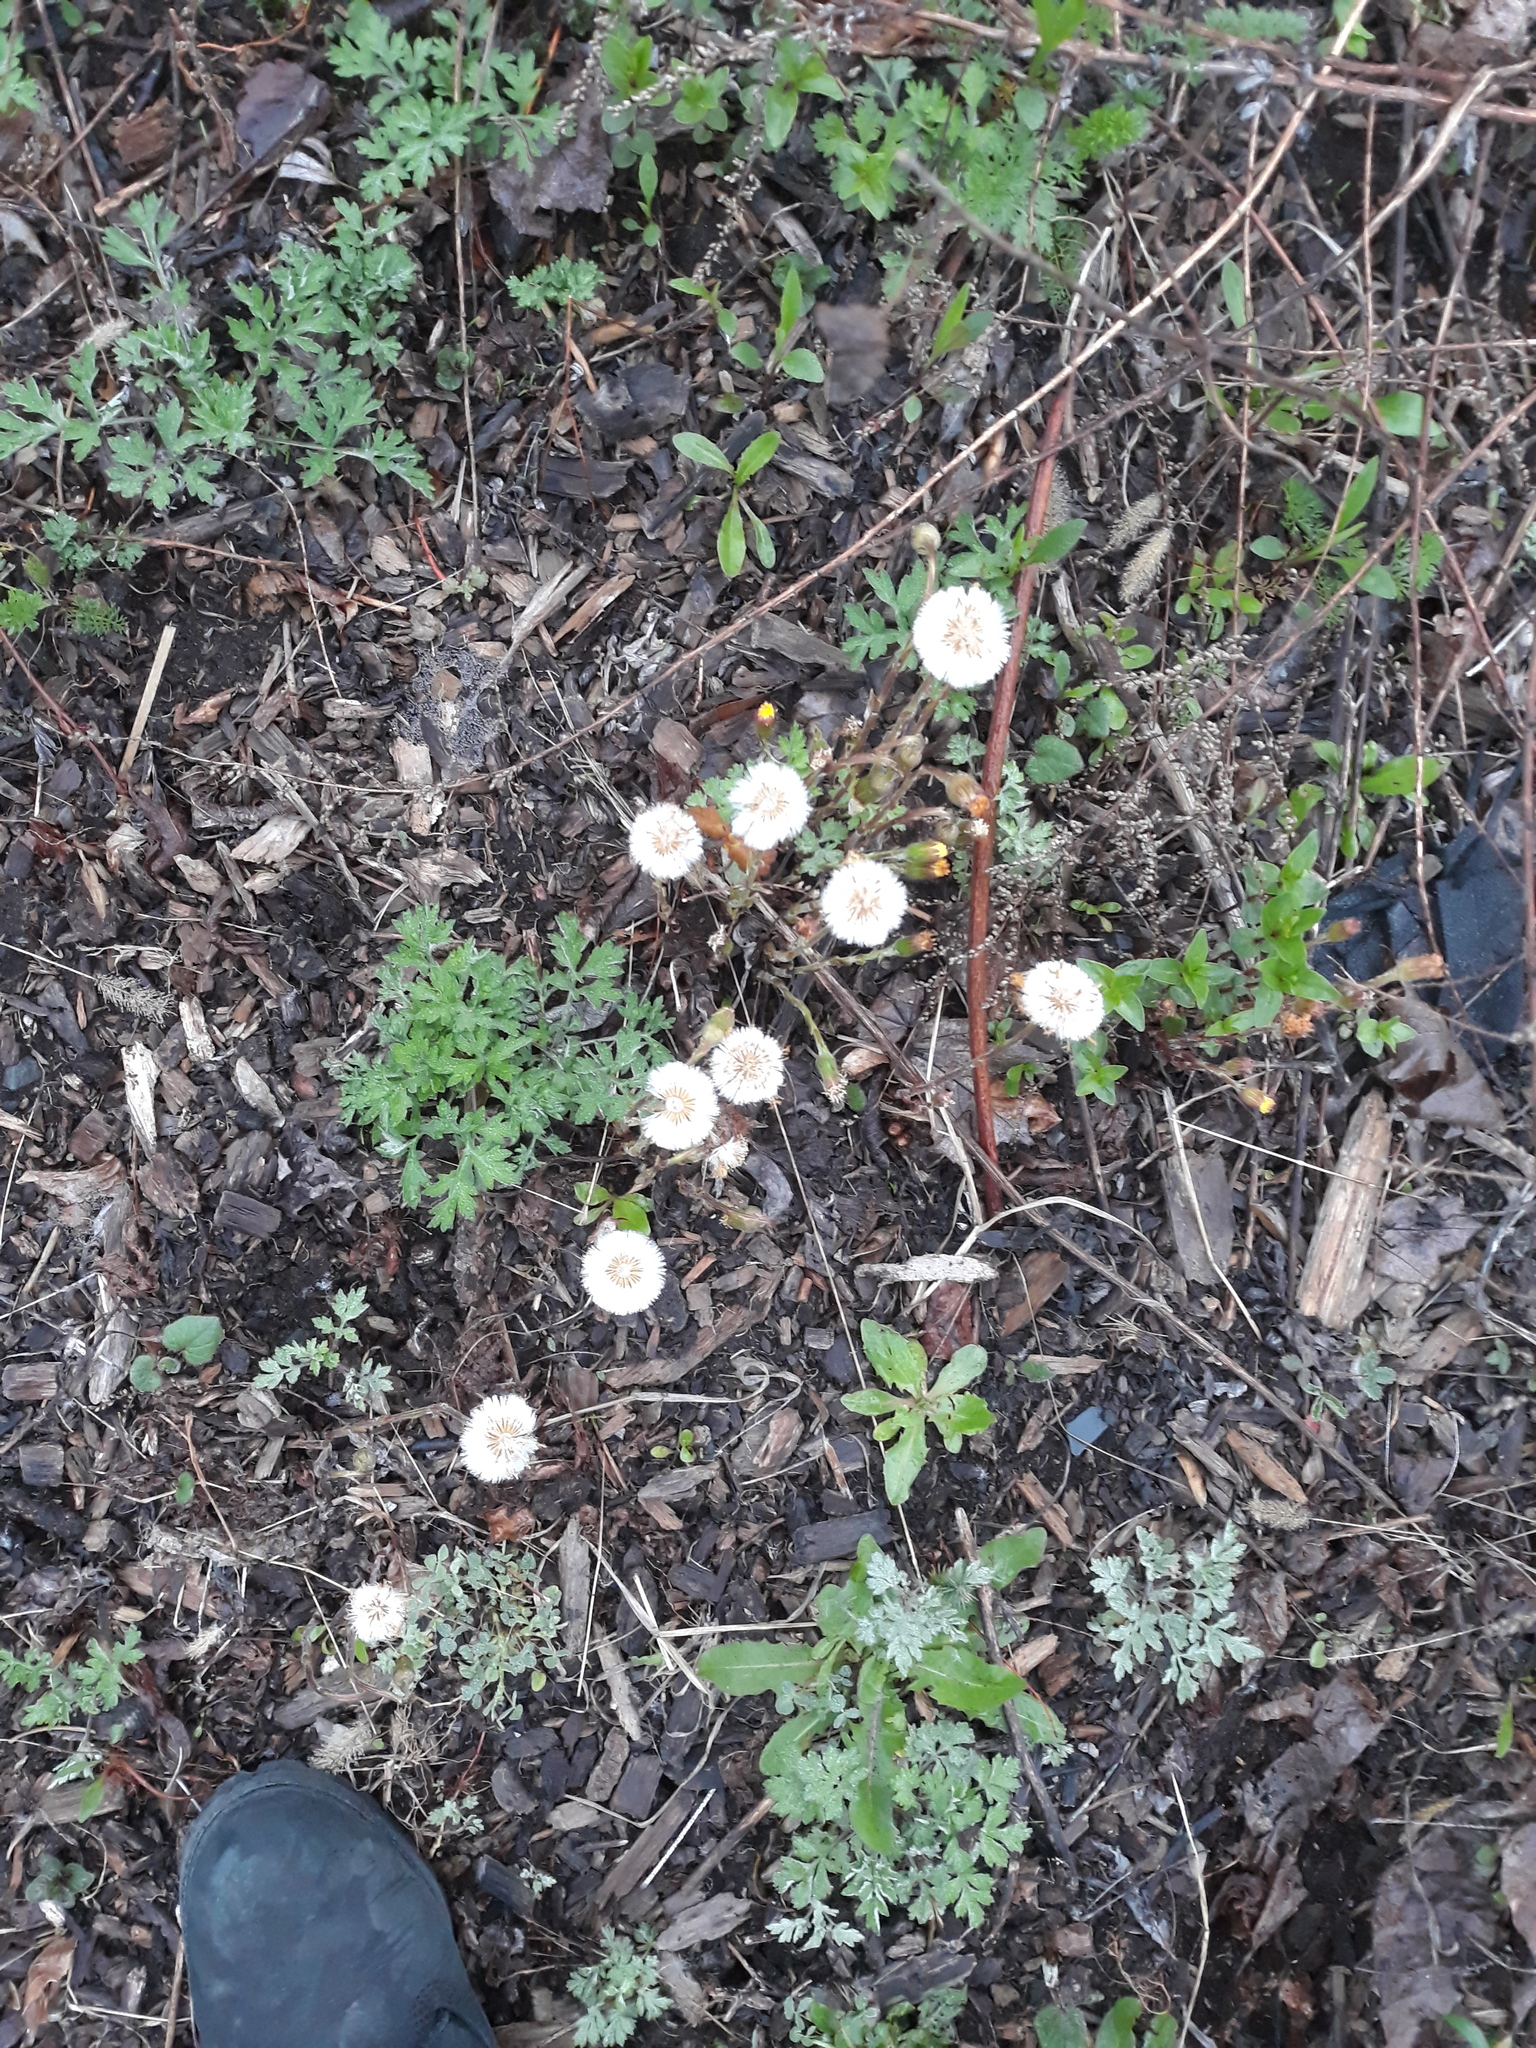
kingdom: Plantae
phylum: Tracheophyta
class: Magnoliopsida
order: Asterales
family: Asteraceae
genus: Tussilago
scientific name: Tussilago farfara
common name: Coltsfoot
